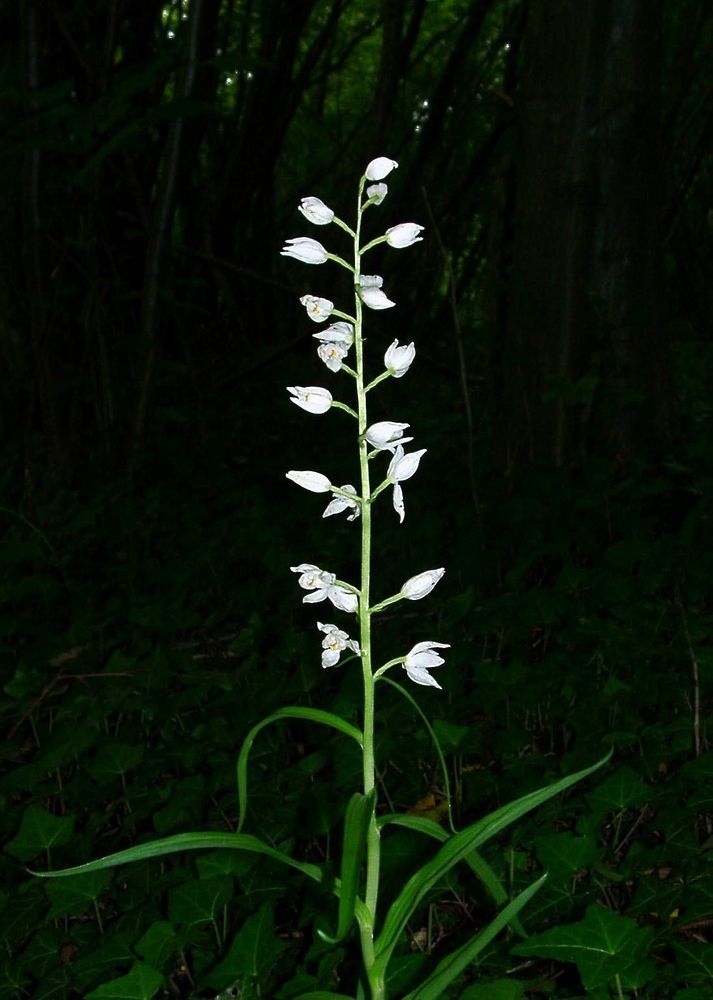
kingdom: Plantae
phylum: Tracheophyta
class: Liliopsida
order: Asparagales
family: Orchidaceae
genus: Cephalanthera
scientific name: Cephalanthera longifolia
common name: Narrow-leaved helleborine
